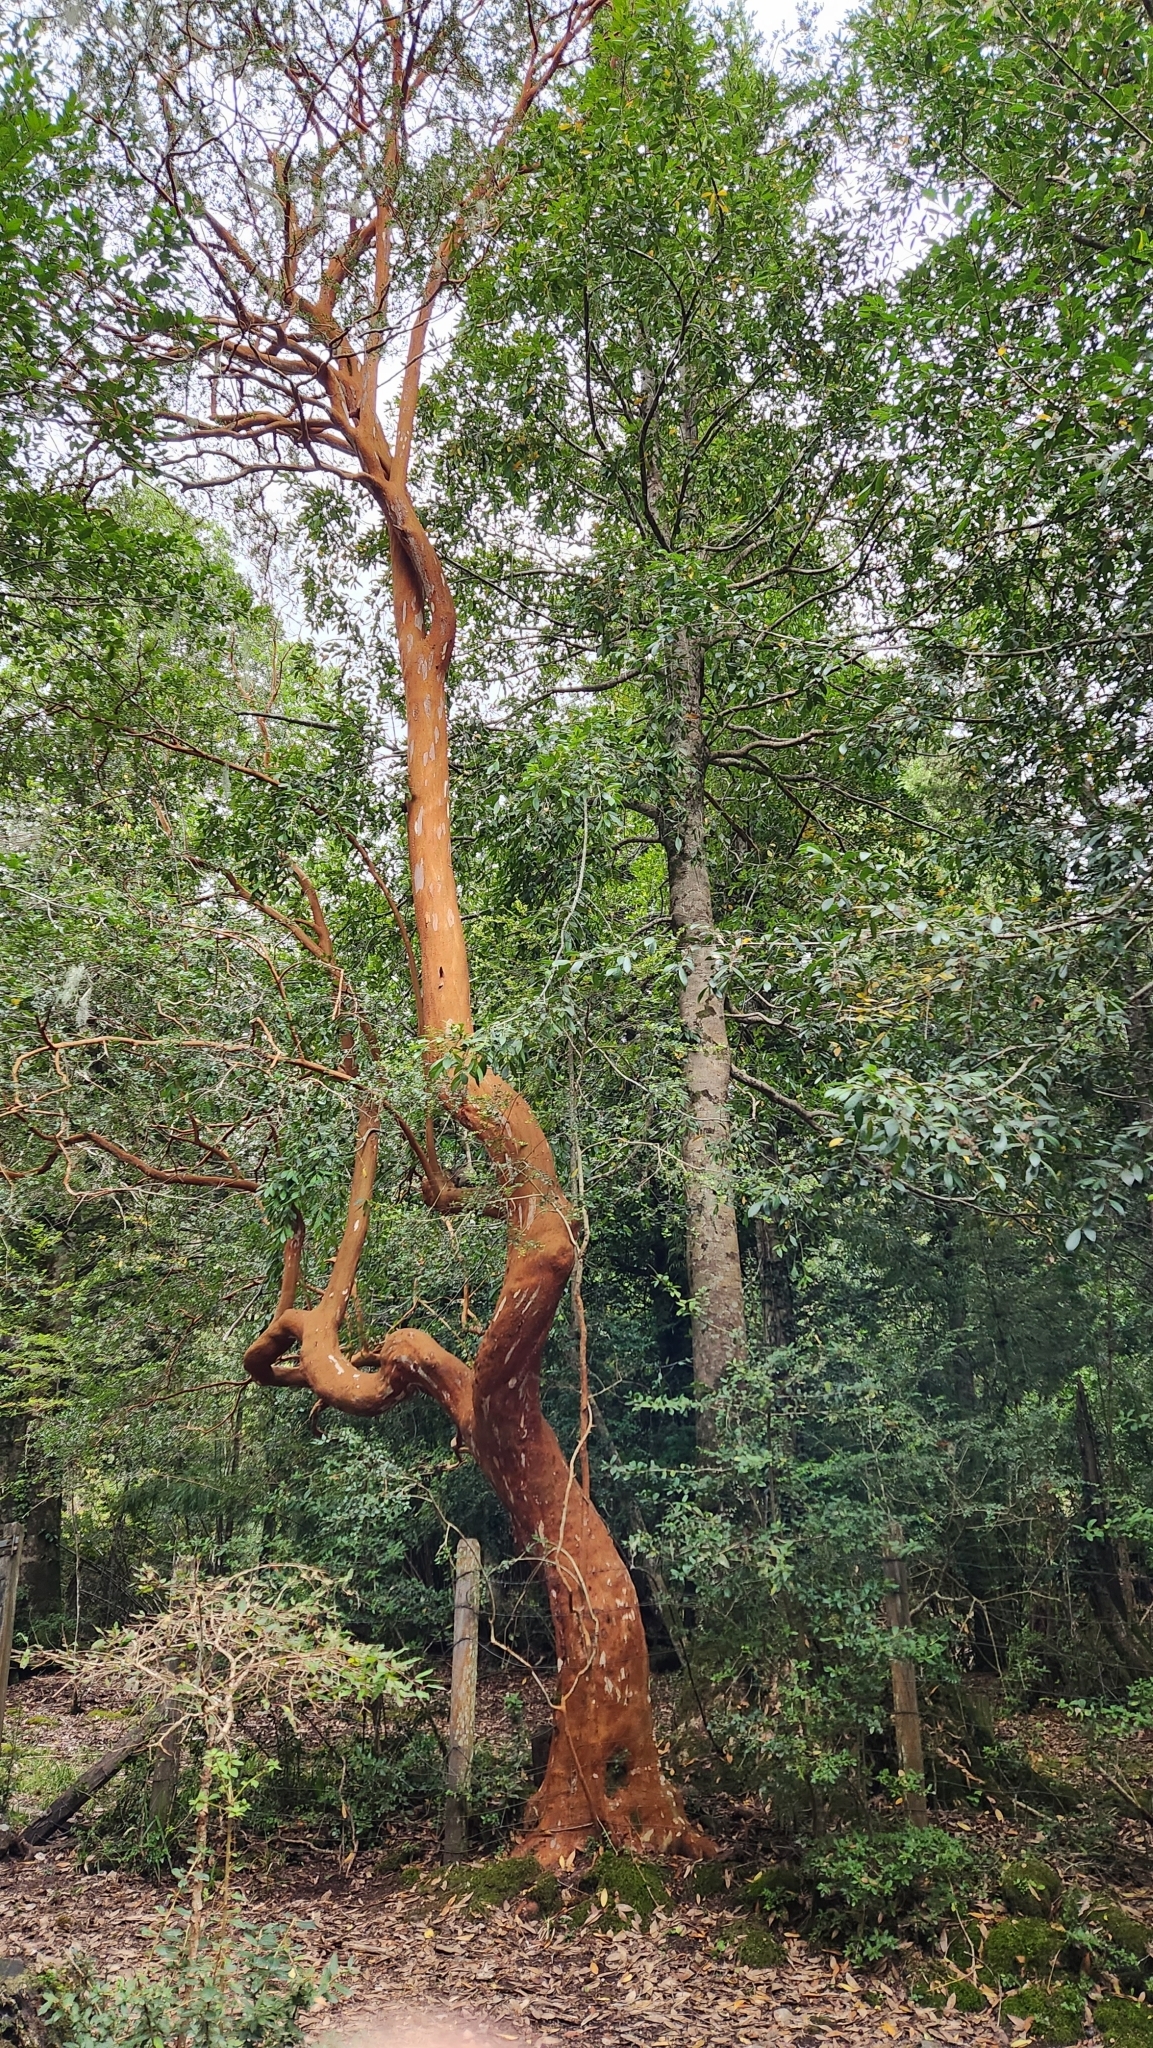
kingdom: Plantae
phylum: Tracheophyta
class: Magnoliopsida
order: Myrtales
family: Myrtaceae
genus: Luma
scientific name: Luma apiculata
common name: Chilean myrtle
